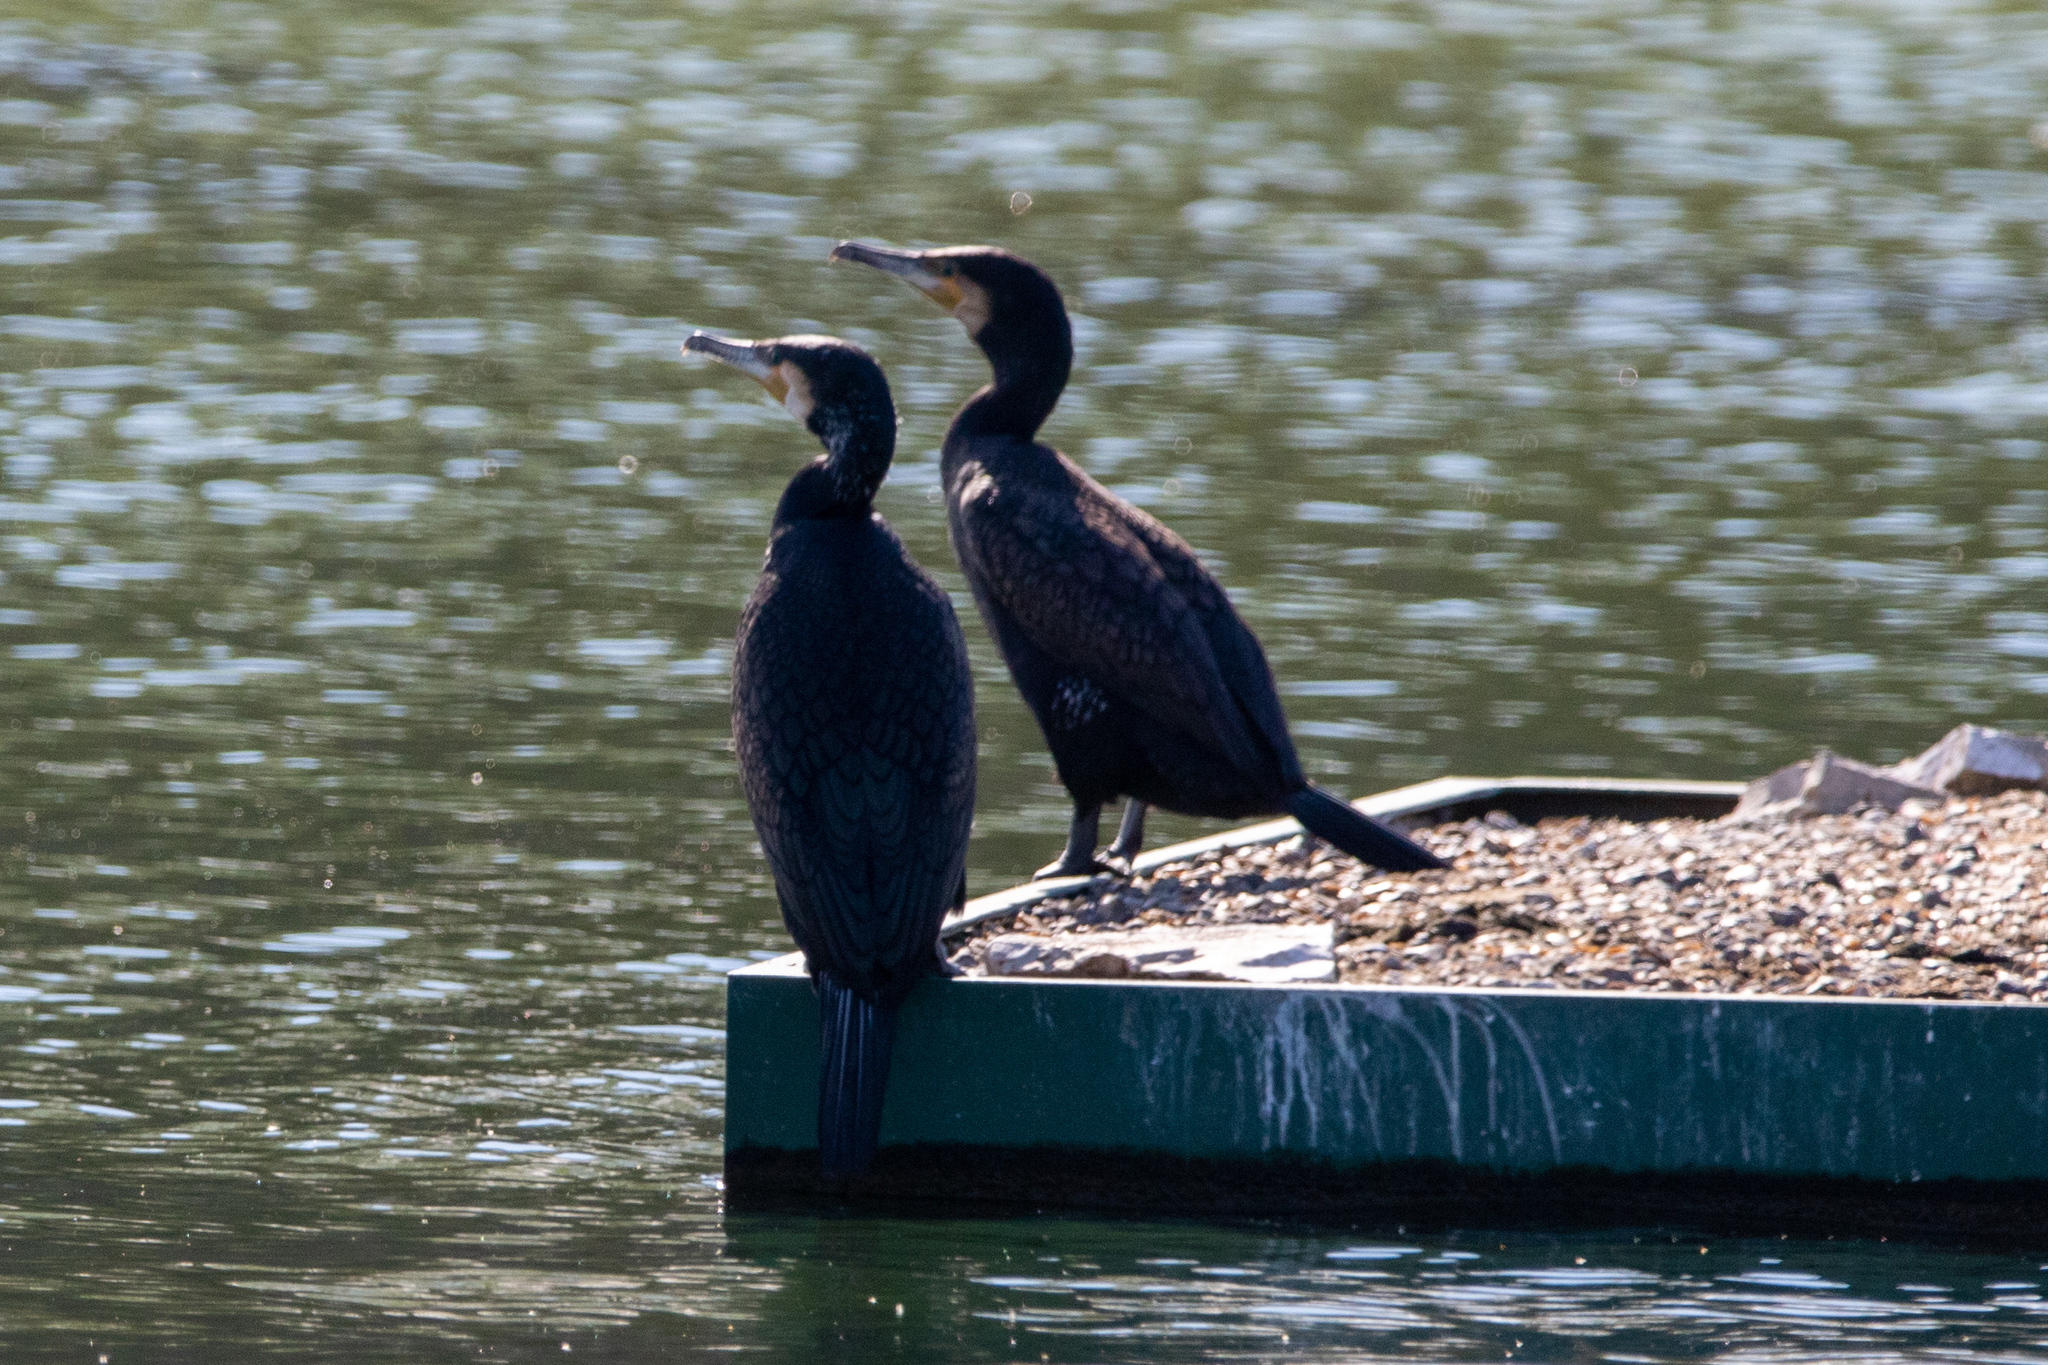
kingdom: Animalia
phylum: Chordata
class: Aves
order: Suliformes
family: Phalacrocoracidae
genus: Phalacrocorax
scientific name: Phalacrocorax carbo
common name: Great cormorant
